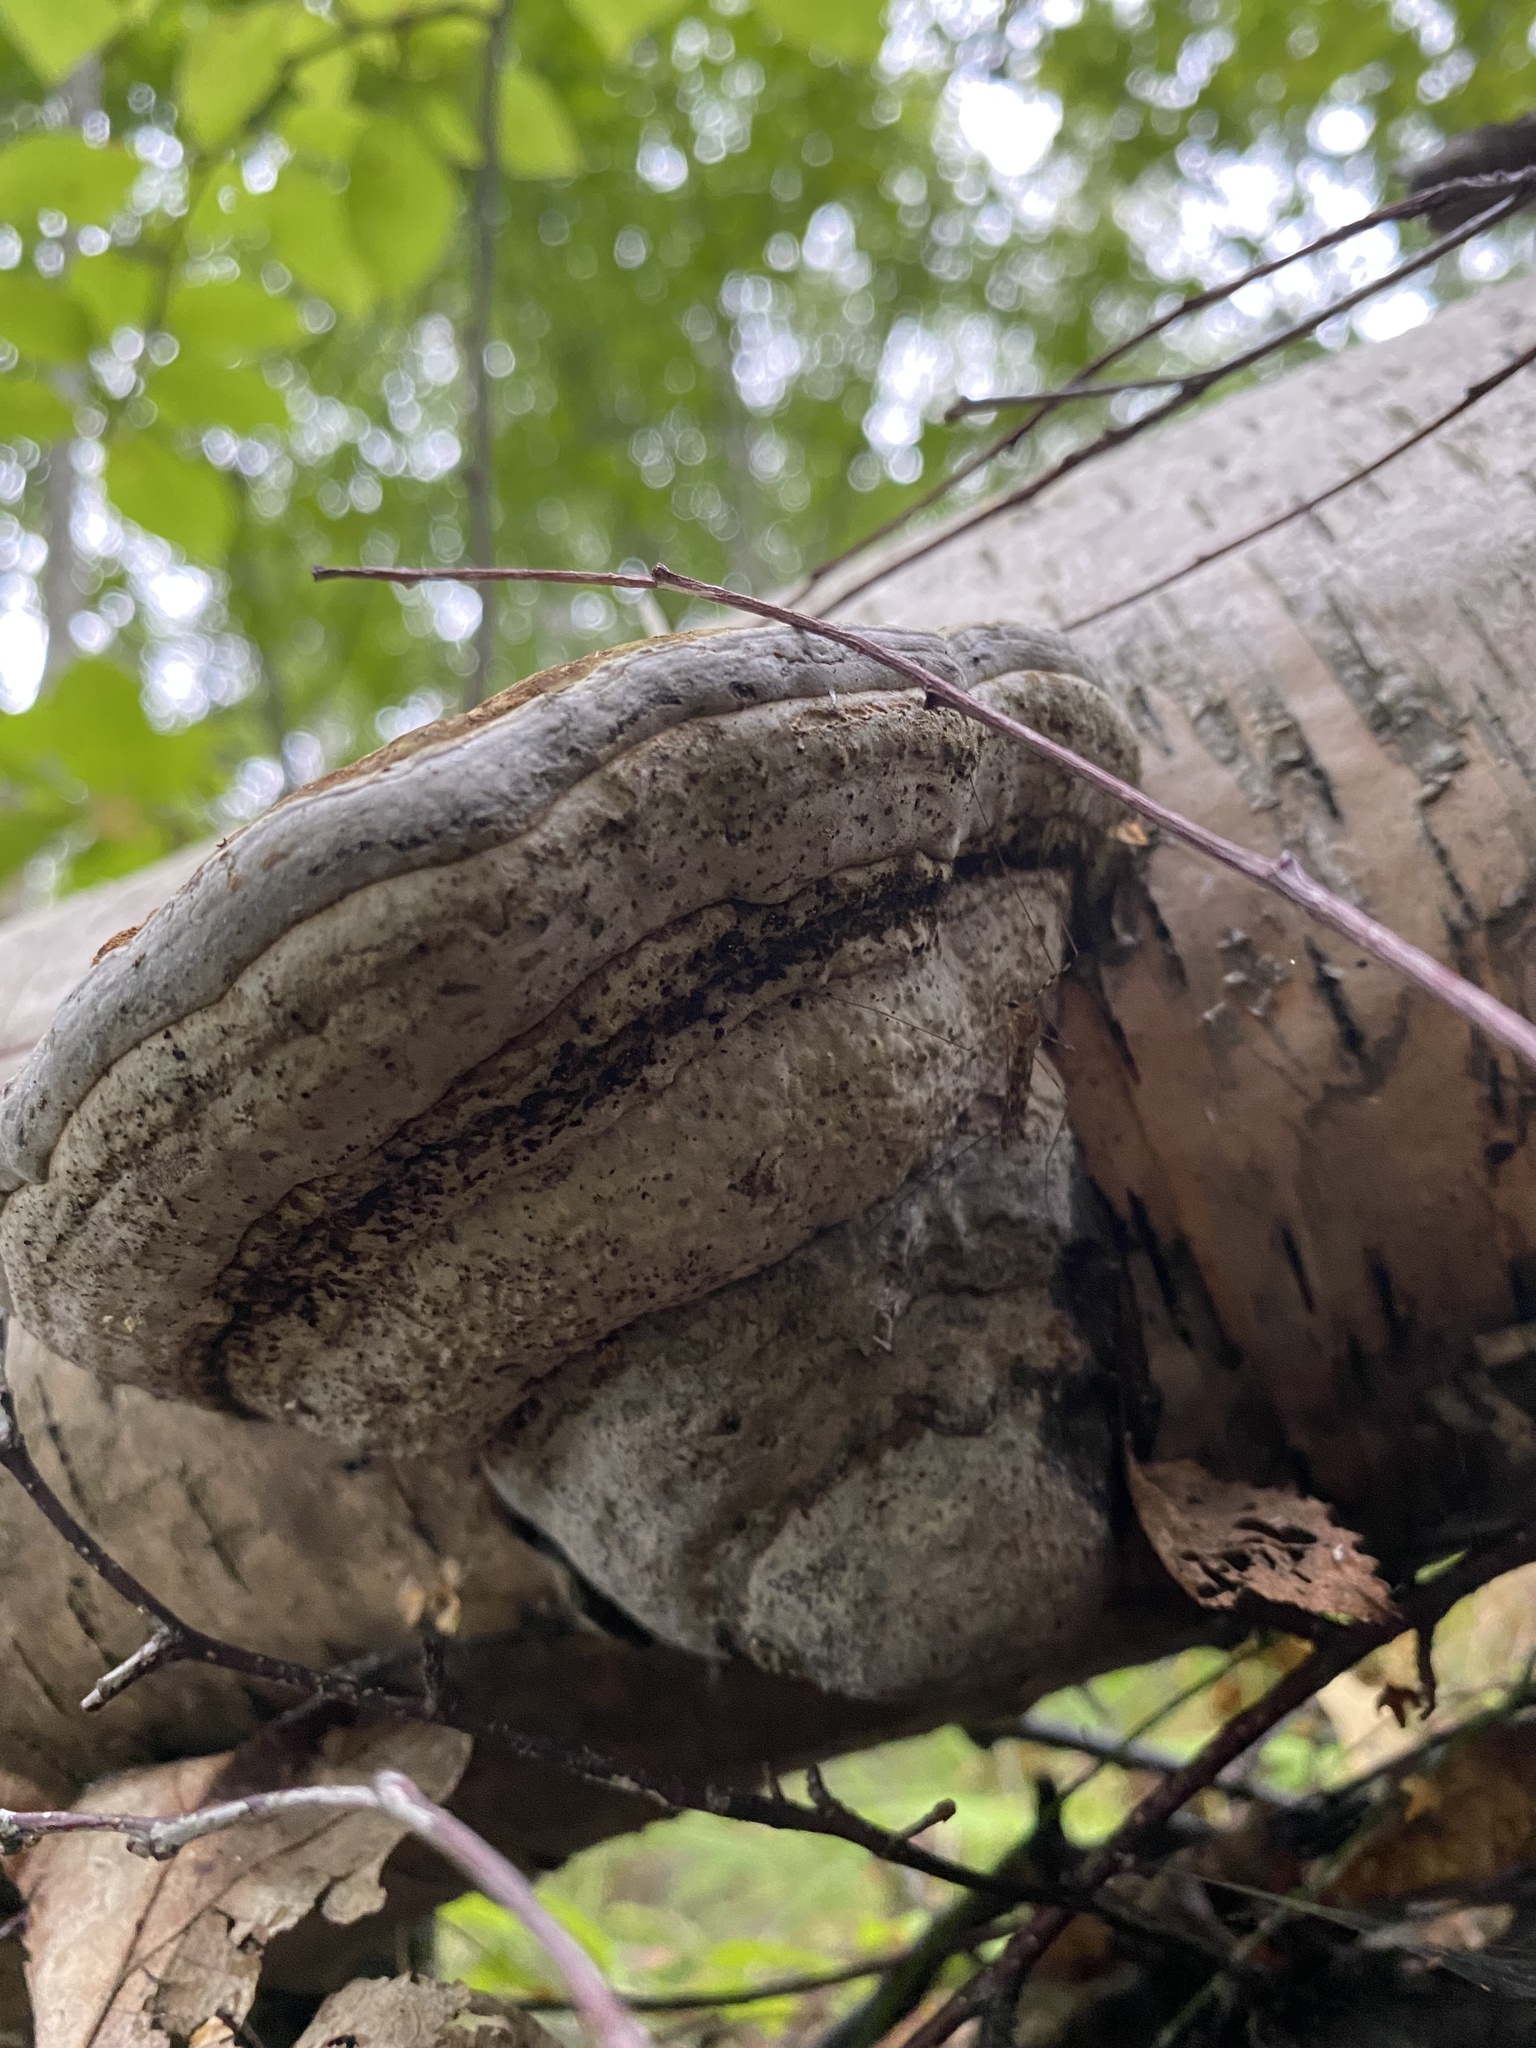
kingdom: Fungi
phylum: Basidiomycota
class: Agaricomycetes
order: Polyporales
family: Polyporaceae
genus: Fomes
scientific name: Fomes fomentarius
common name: Hoof fungus
